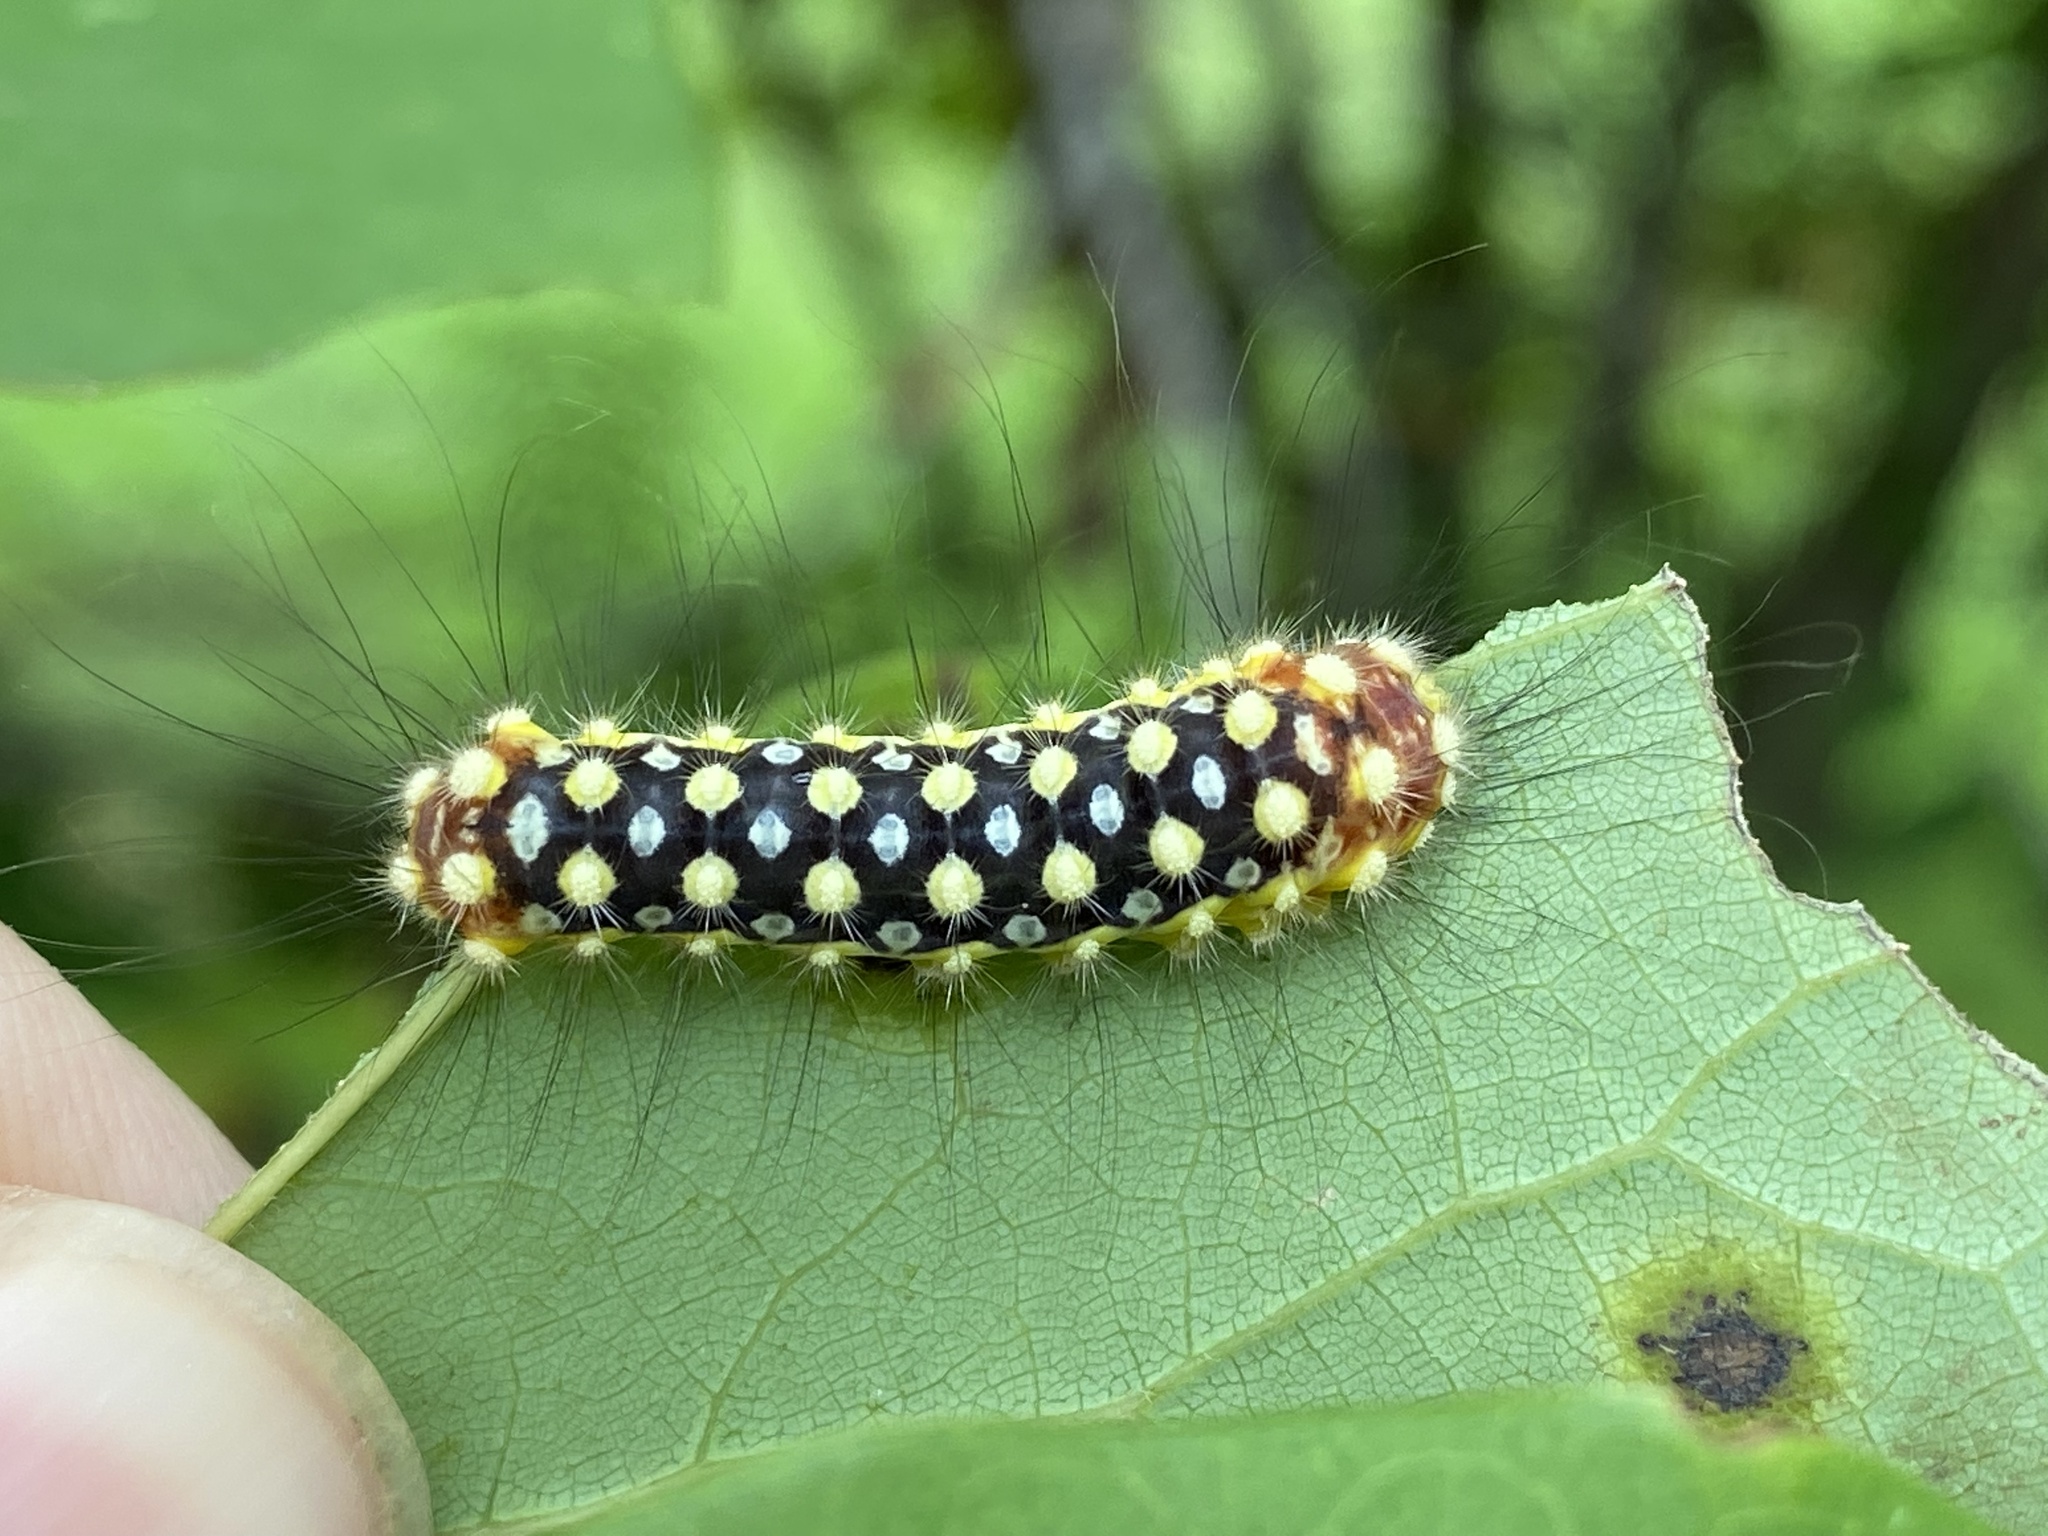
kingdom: Animalia
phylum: Arthropoda
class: Insecta
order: Lepidoptera
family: Megalopygidae
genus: Norape
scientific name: Norape cretata
